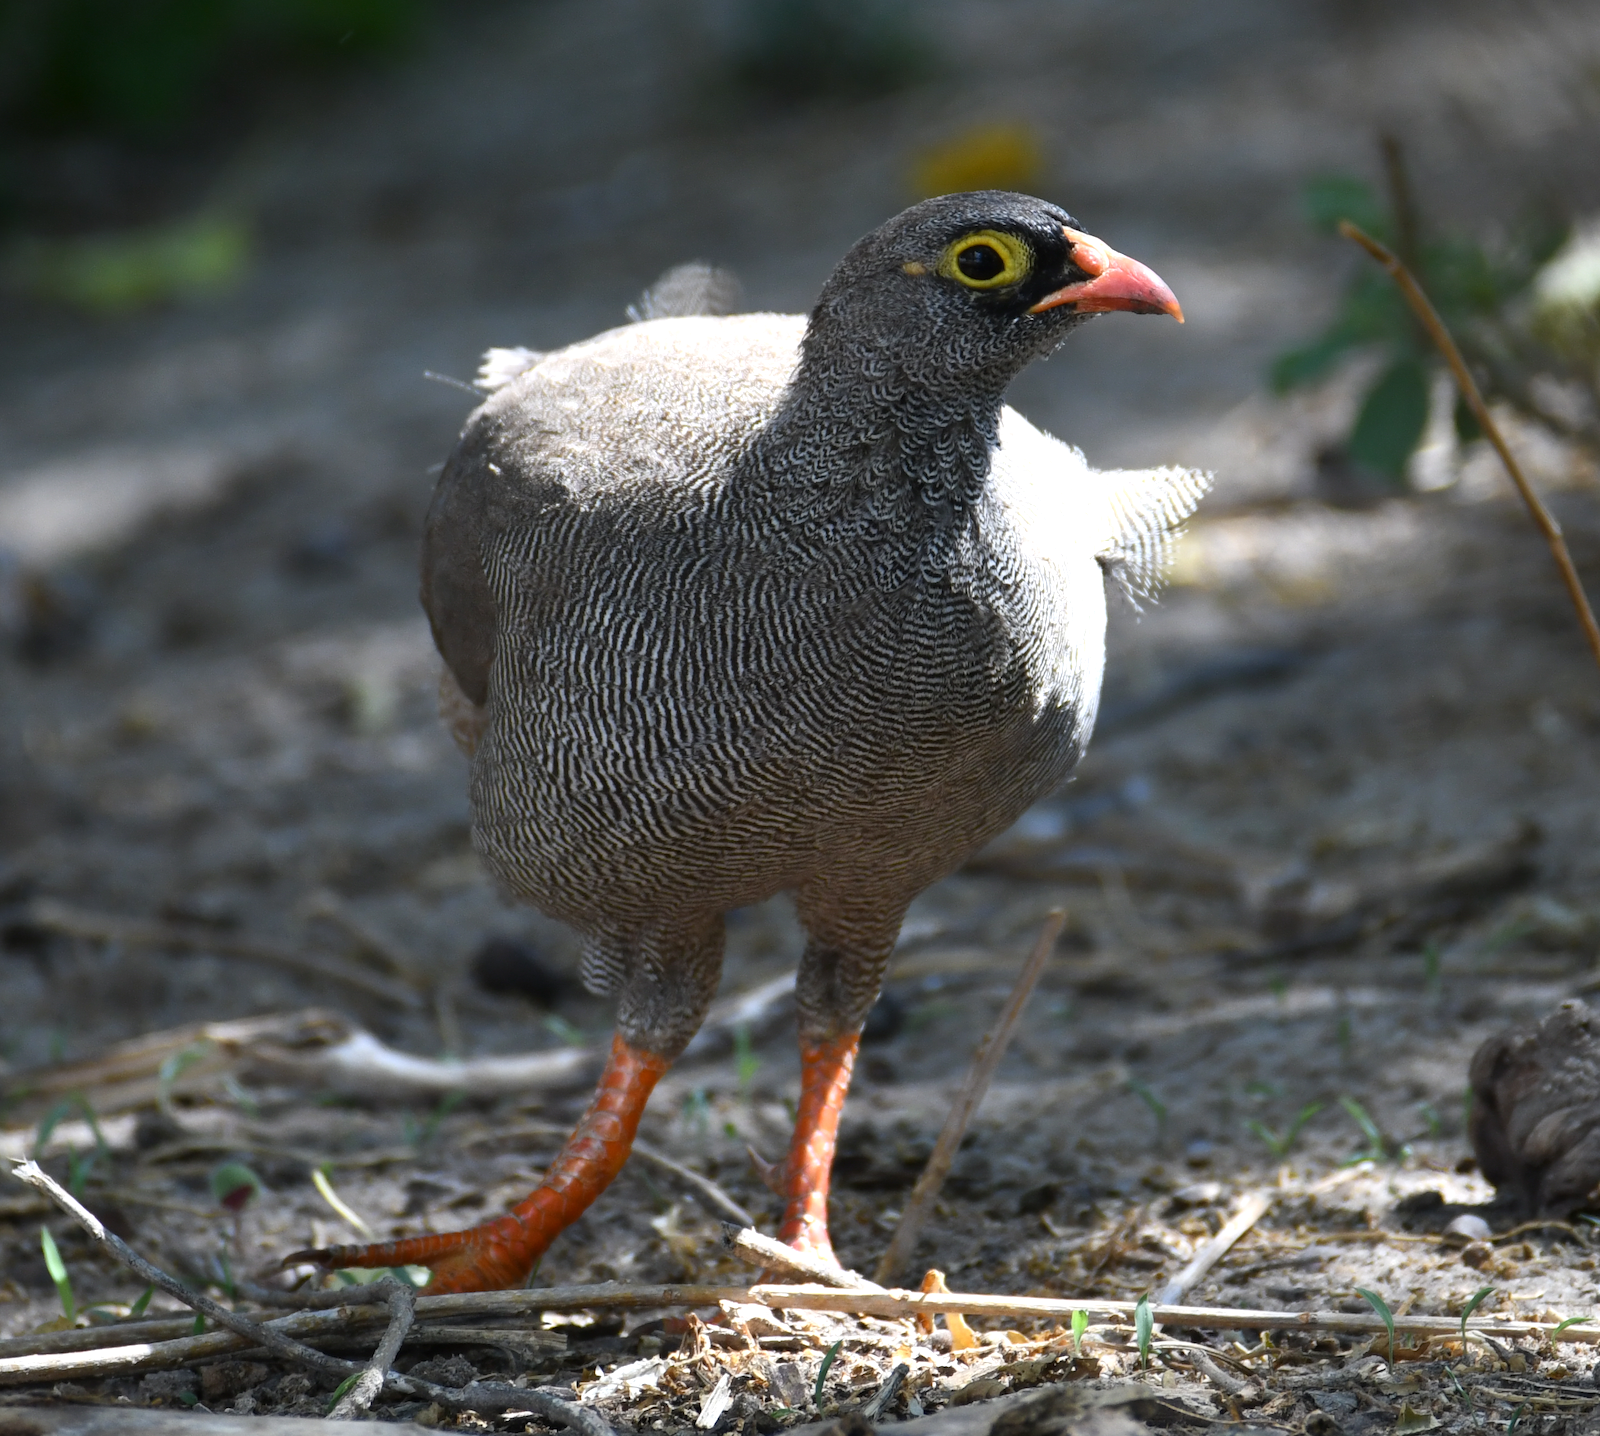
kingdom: Animalia
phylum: Chordata
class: Aves
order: Galliformes
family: Phasianidae
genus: Pternistis
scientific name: Pternistis adspersus
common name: Red-billed spurfowl
